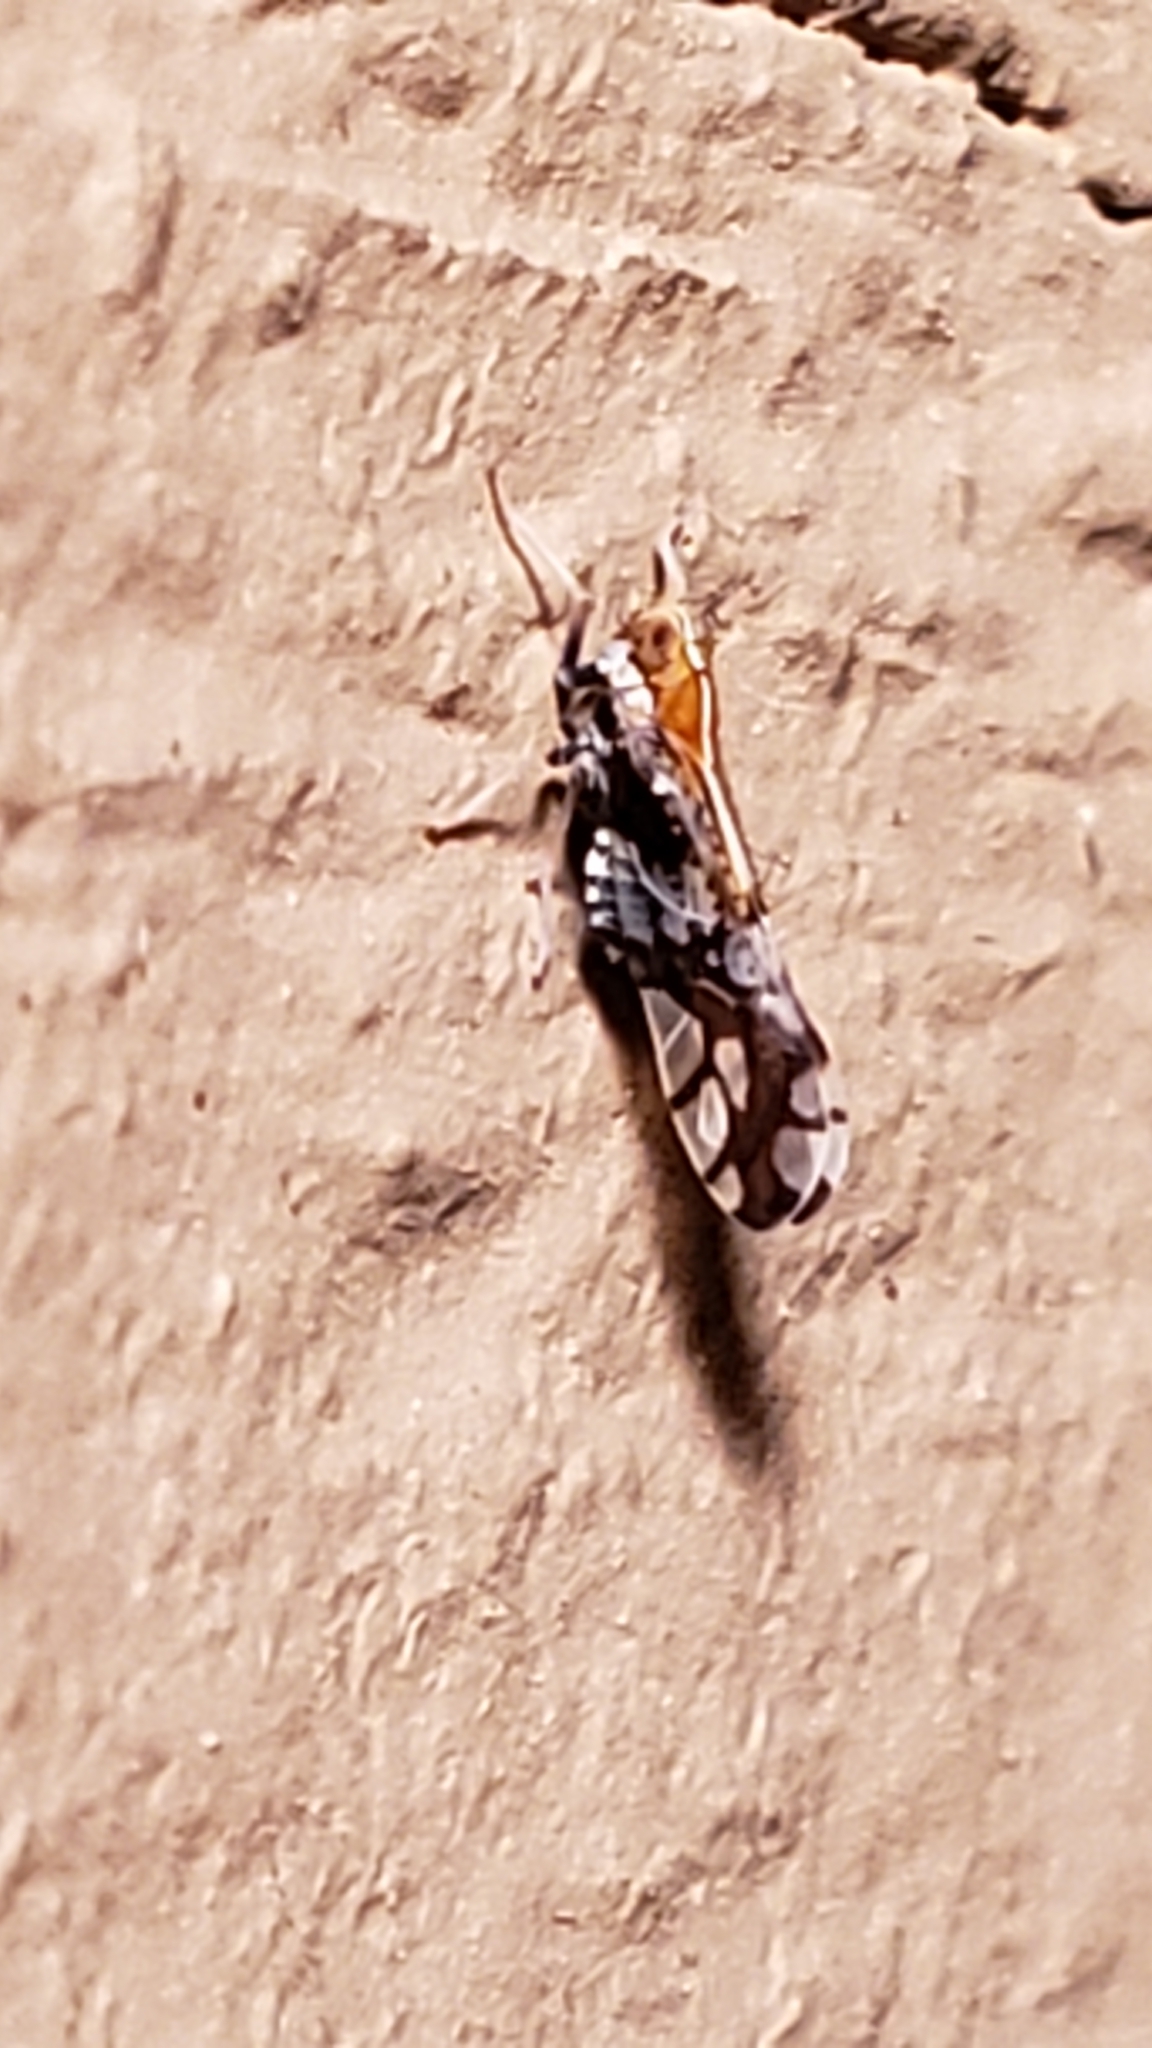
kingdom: Animalia
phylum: Arthropoda
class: Insecta
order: Hemiptera
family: Delphacidae
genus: Liburniella
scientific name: Liburniella ornata
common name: Ornate planthopper
